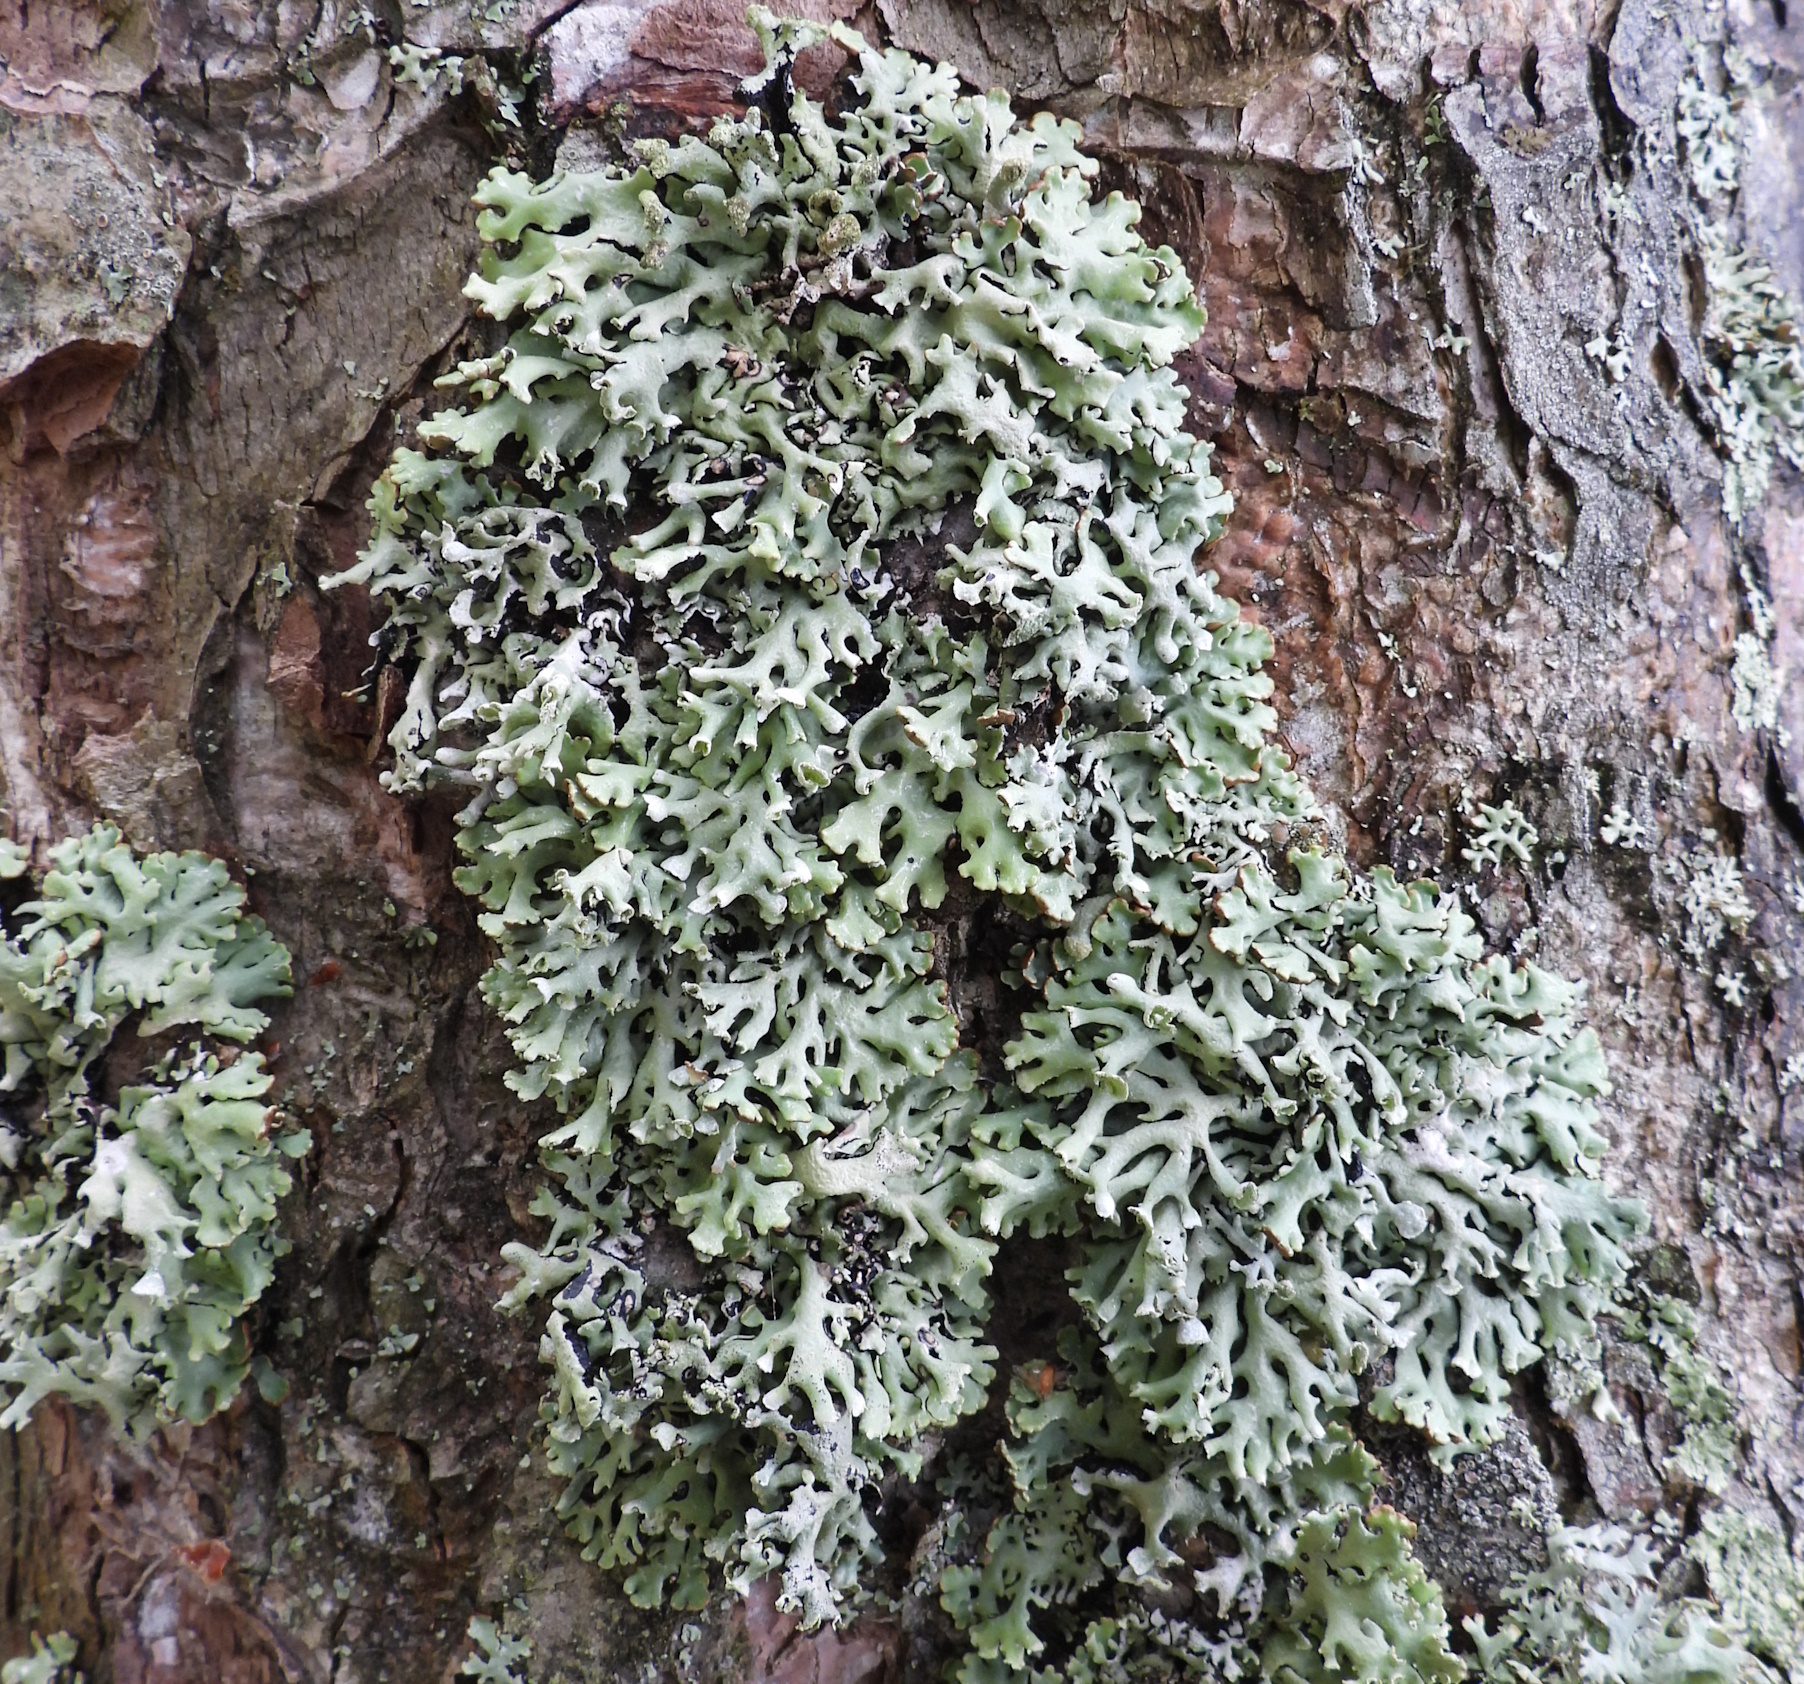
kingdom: Fungi
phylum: Ascomycota
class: Lecanoromycetes
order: Lecanorales
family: Parmeliaceae
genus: Hypogymnia
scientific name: Hypogymnia physodes
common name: Dark crottle
